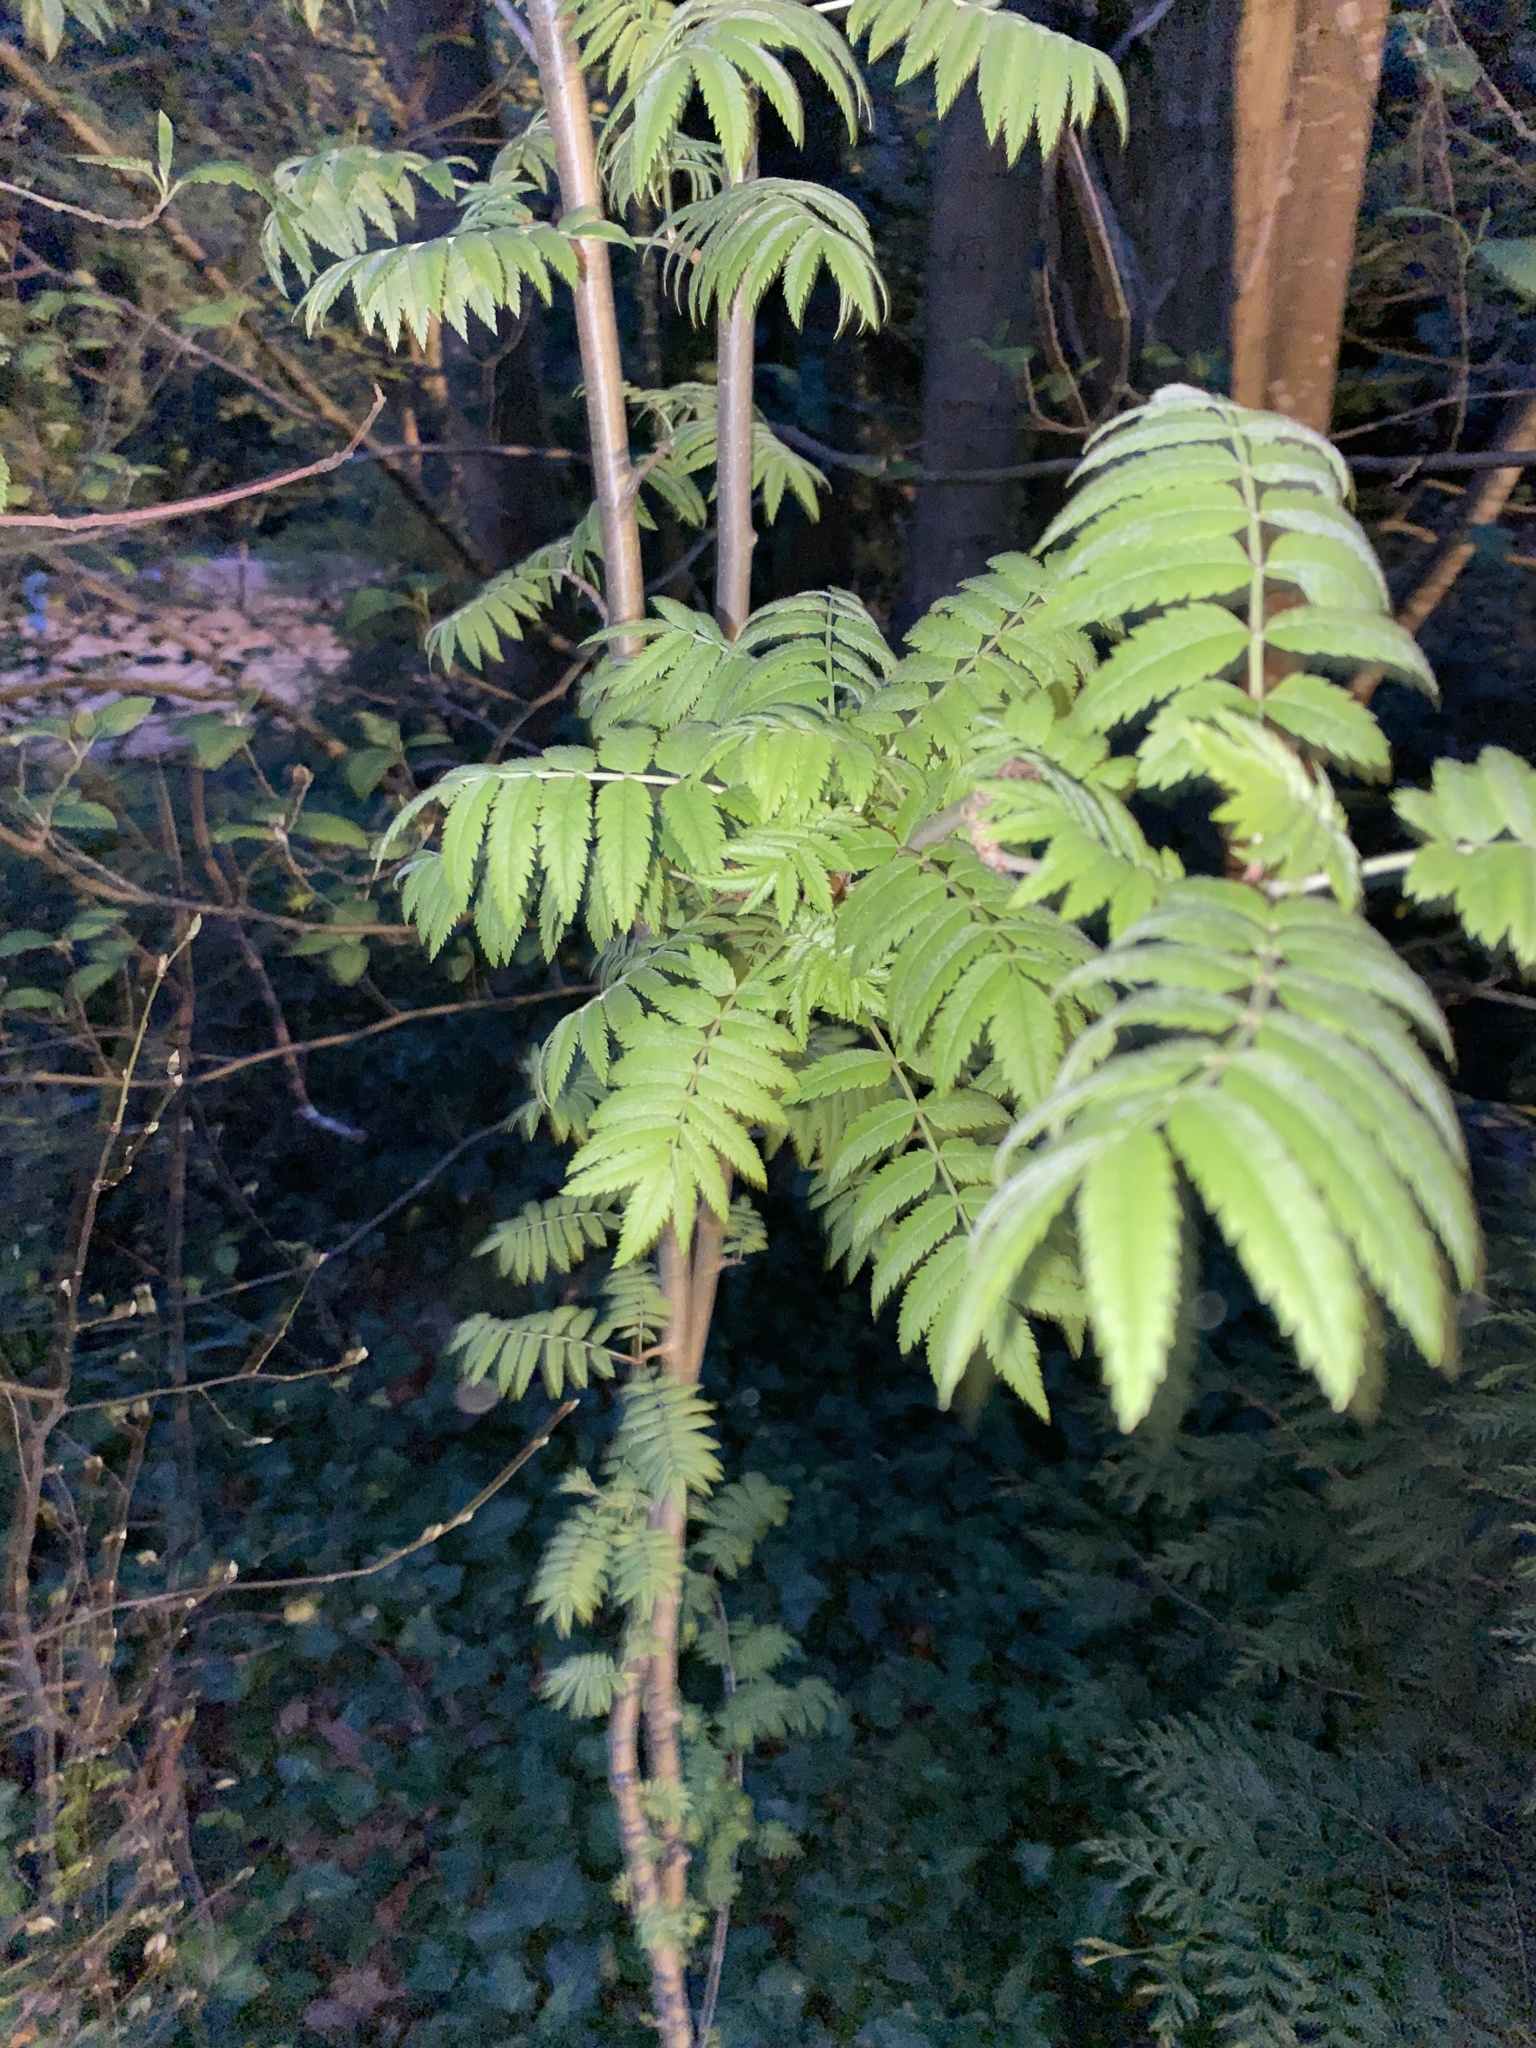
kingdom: Plantae
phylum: Tracheophyta
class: Magnoliopsida
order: Rosales
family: Rosaceae
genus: Sorbus
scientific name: Sorbus aucuparia
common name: Rowan
